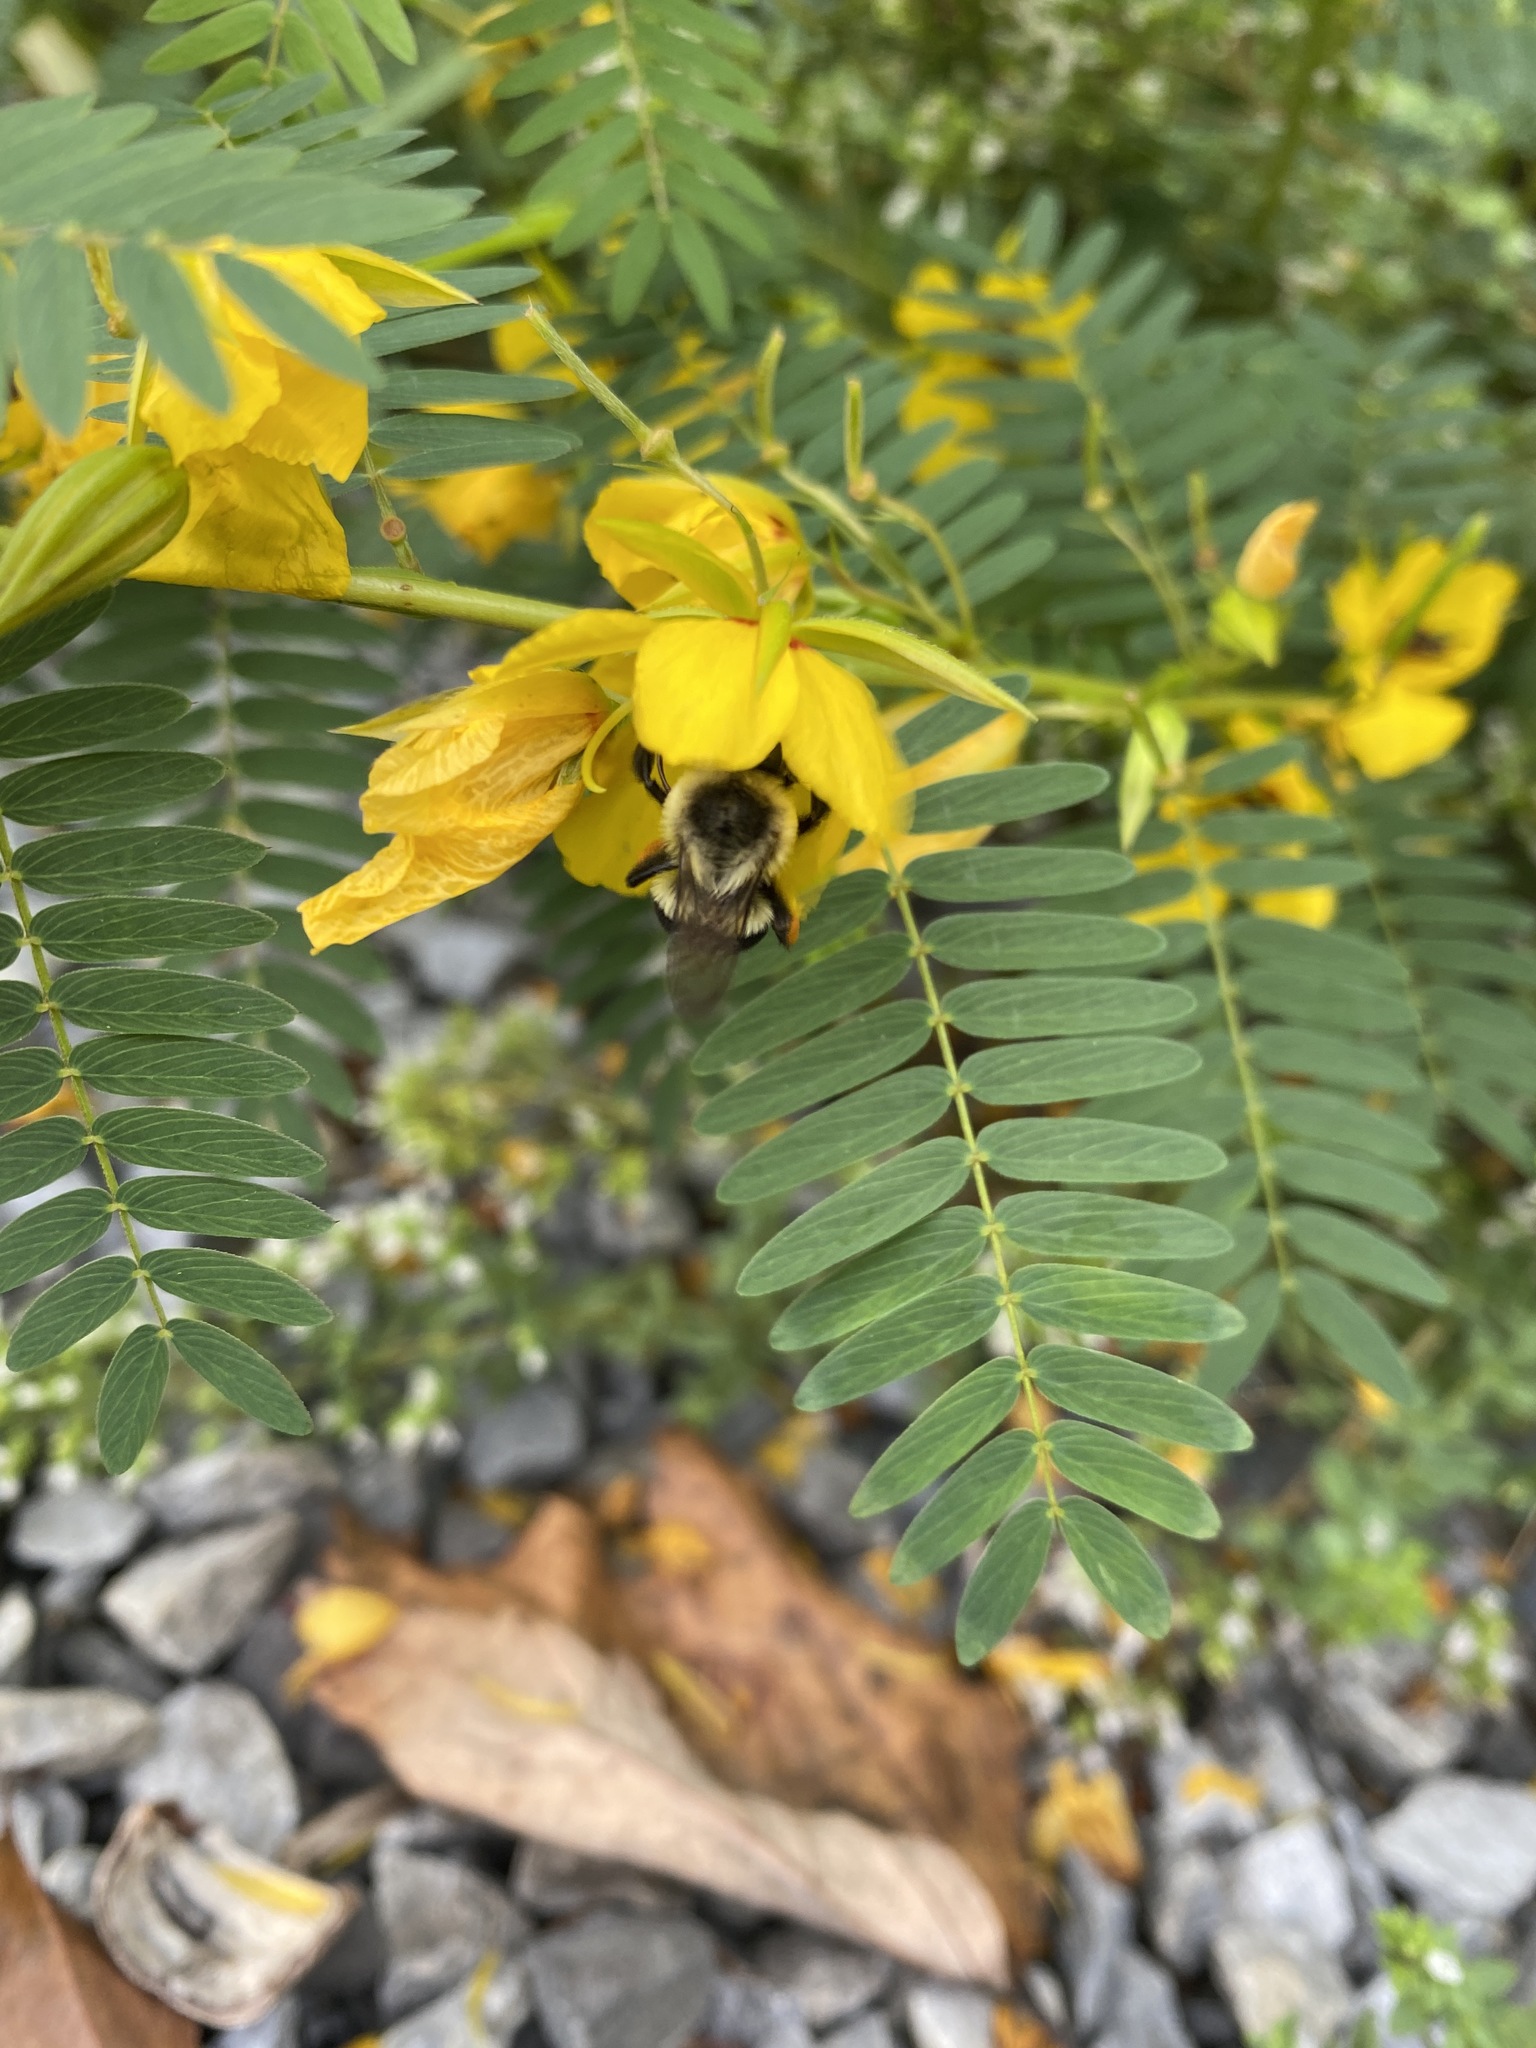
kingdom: Animalia
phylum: Arthropoda
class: Insecta
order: Hymenoptera
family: Apidae
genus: Bombus
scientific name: Bombus impatiens
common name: Common eastern bumble bee
